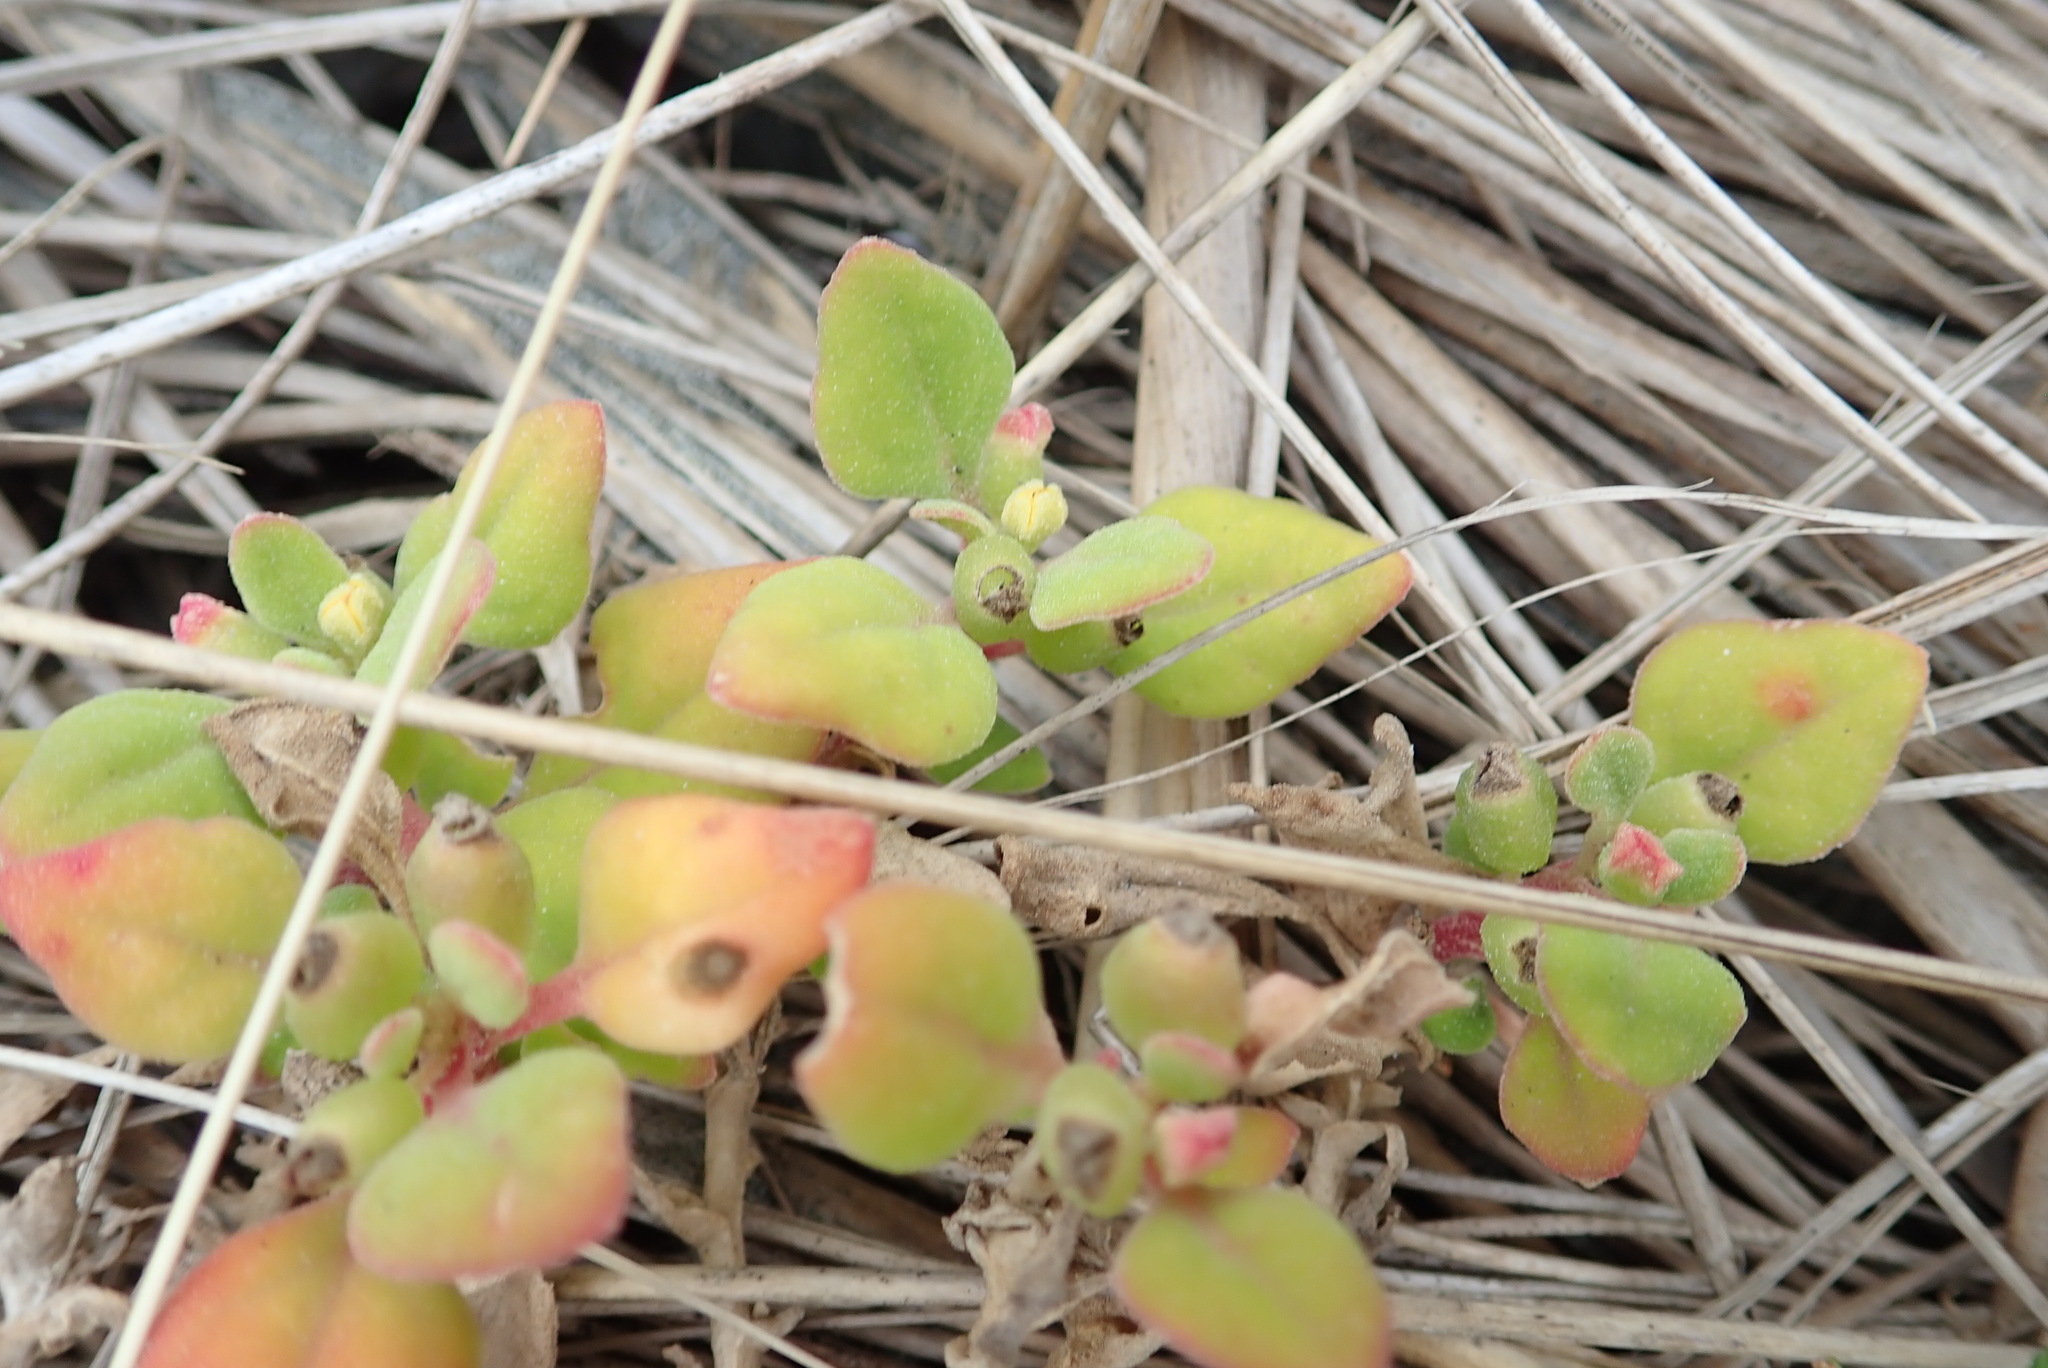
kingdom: Plantae
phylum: Tracheophyta
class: Magnoliopsida
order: Caryophyllales
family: Aizoaceae
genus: Tetragonia
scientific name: Tetragonia implexicoma
